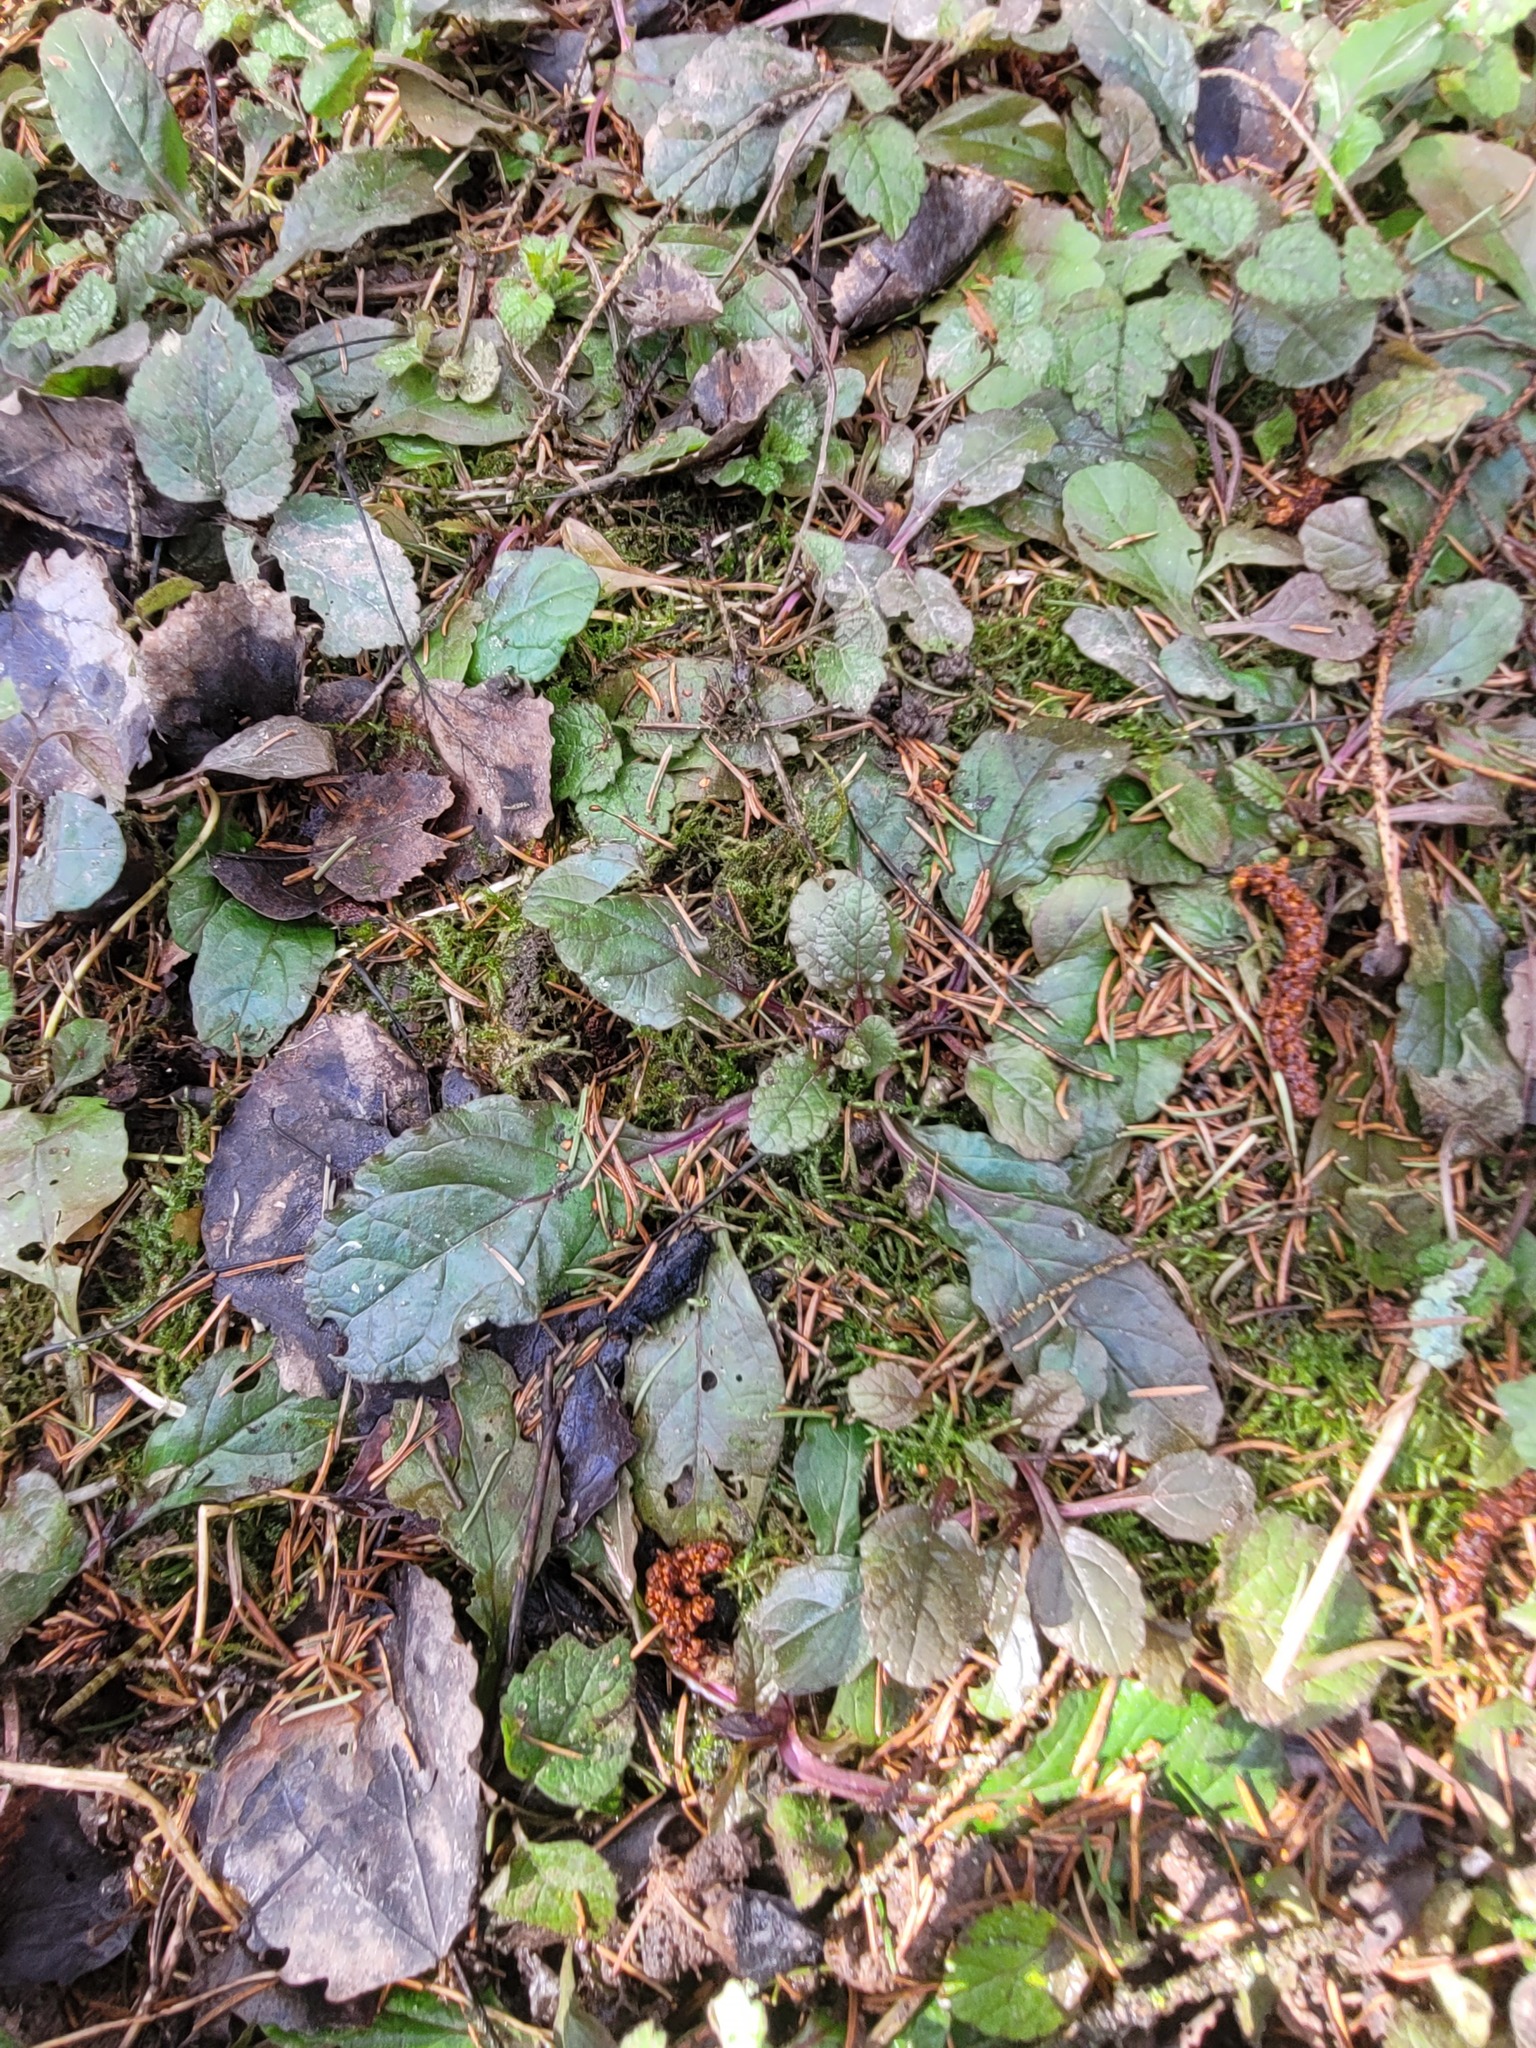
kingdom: Plantae
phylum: Tracheophyta
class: Magnoliopsida
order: Lamiales
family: Lamiaceae
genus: Ajuga
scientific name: Ajuga reptans
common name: Bugle
